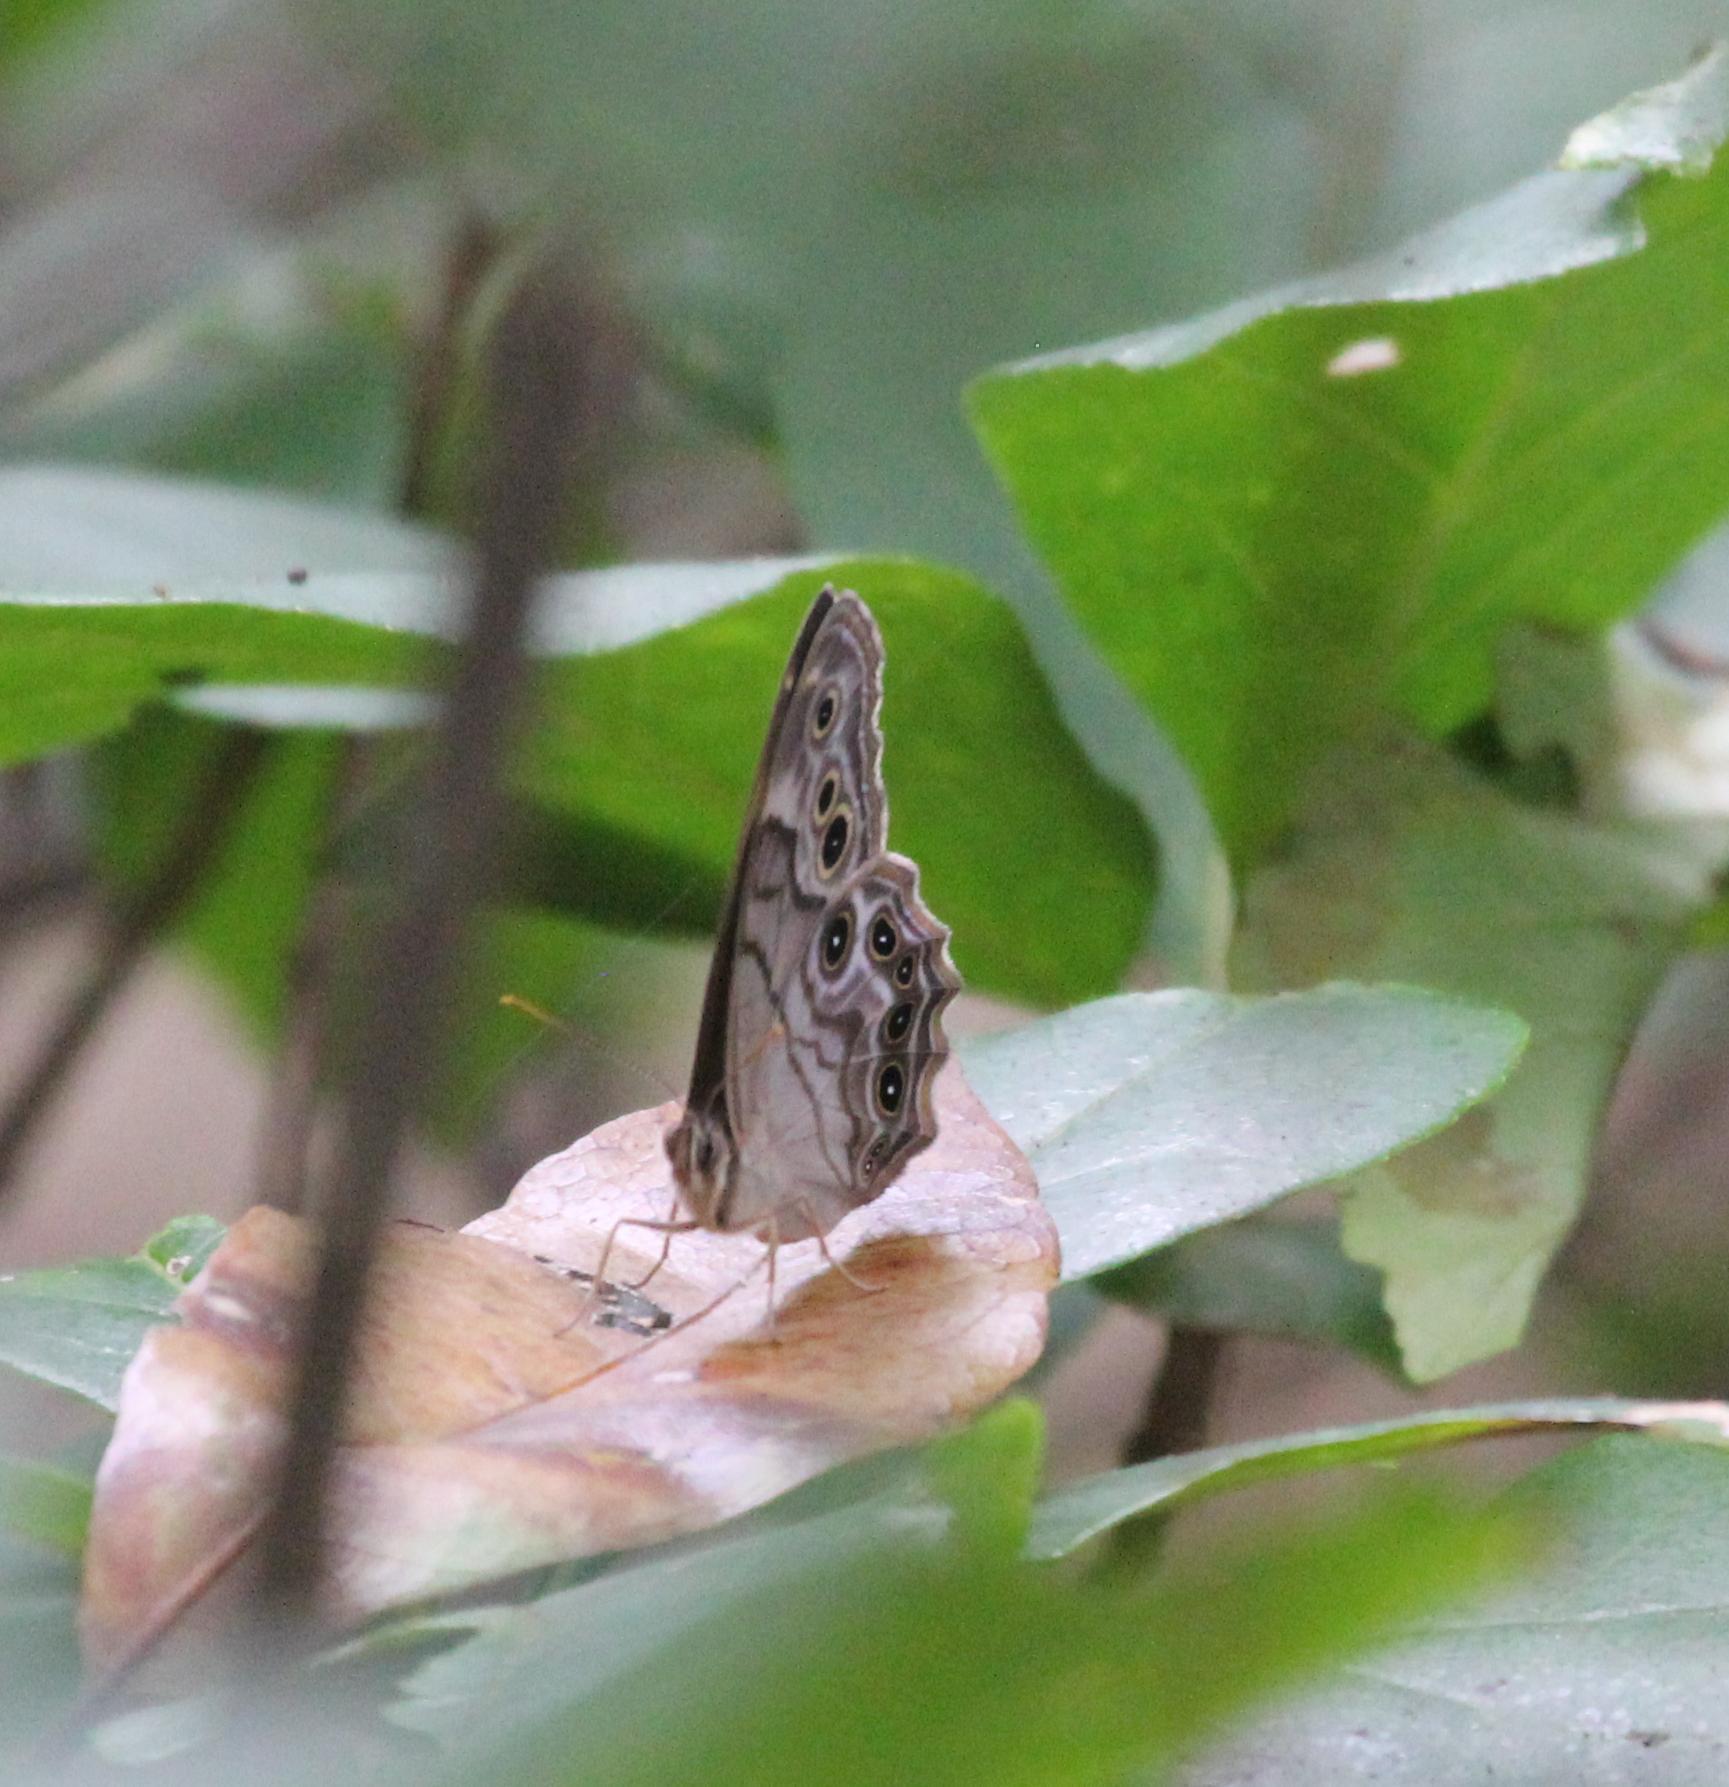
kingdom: Animalia
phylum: Arthropoda
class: Insecta
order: Lepidoptera
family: Nymphalidae
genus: Enodia
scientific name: Enodia portlandia
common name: Southern pearly-eye
